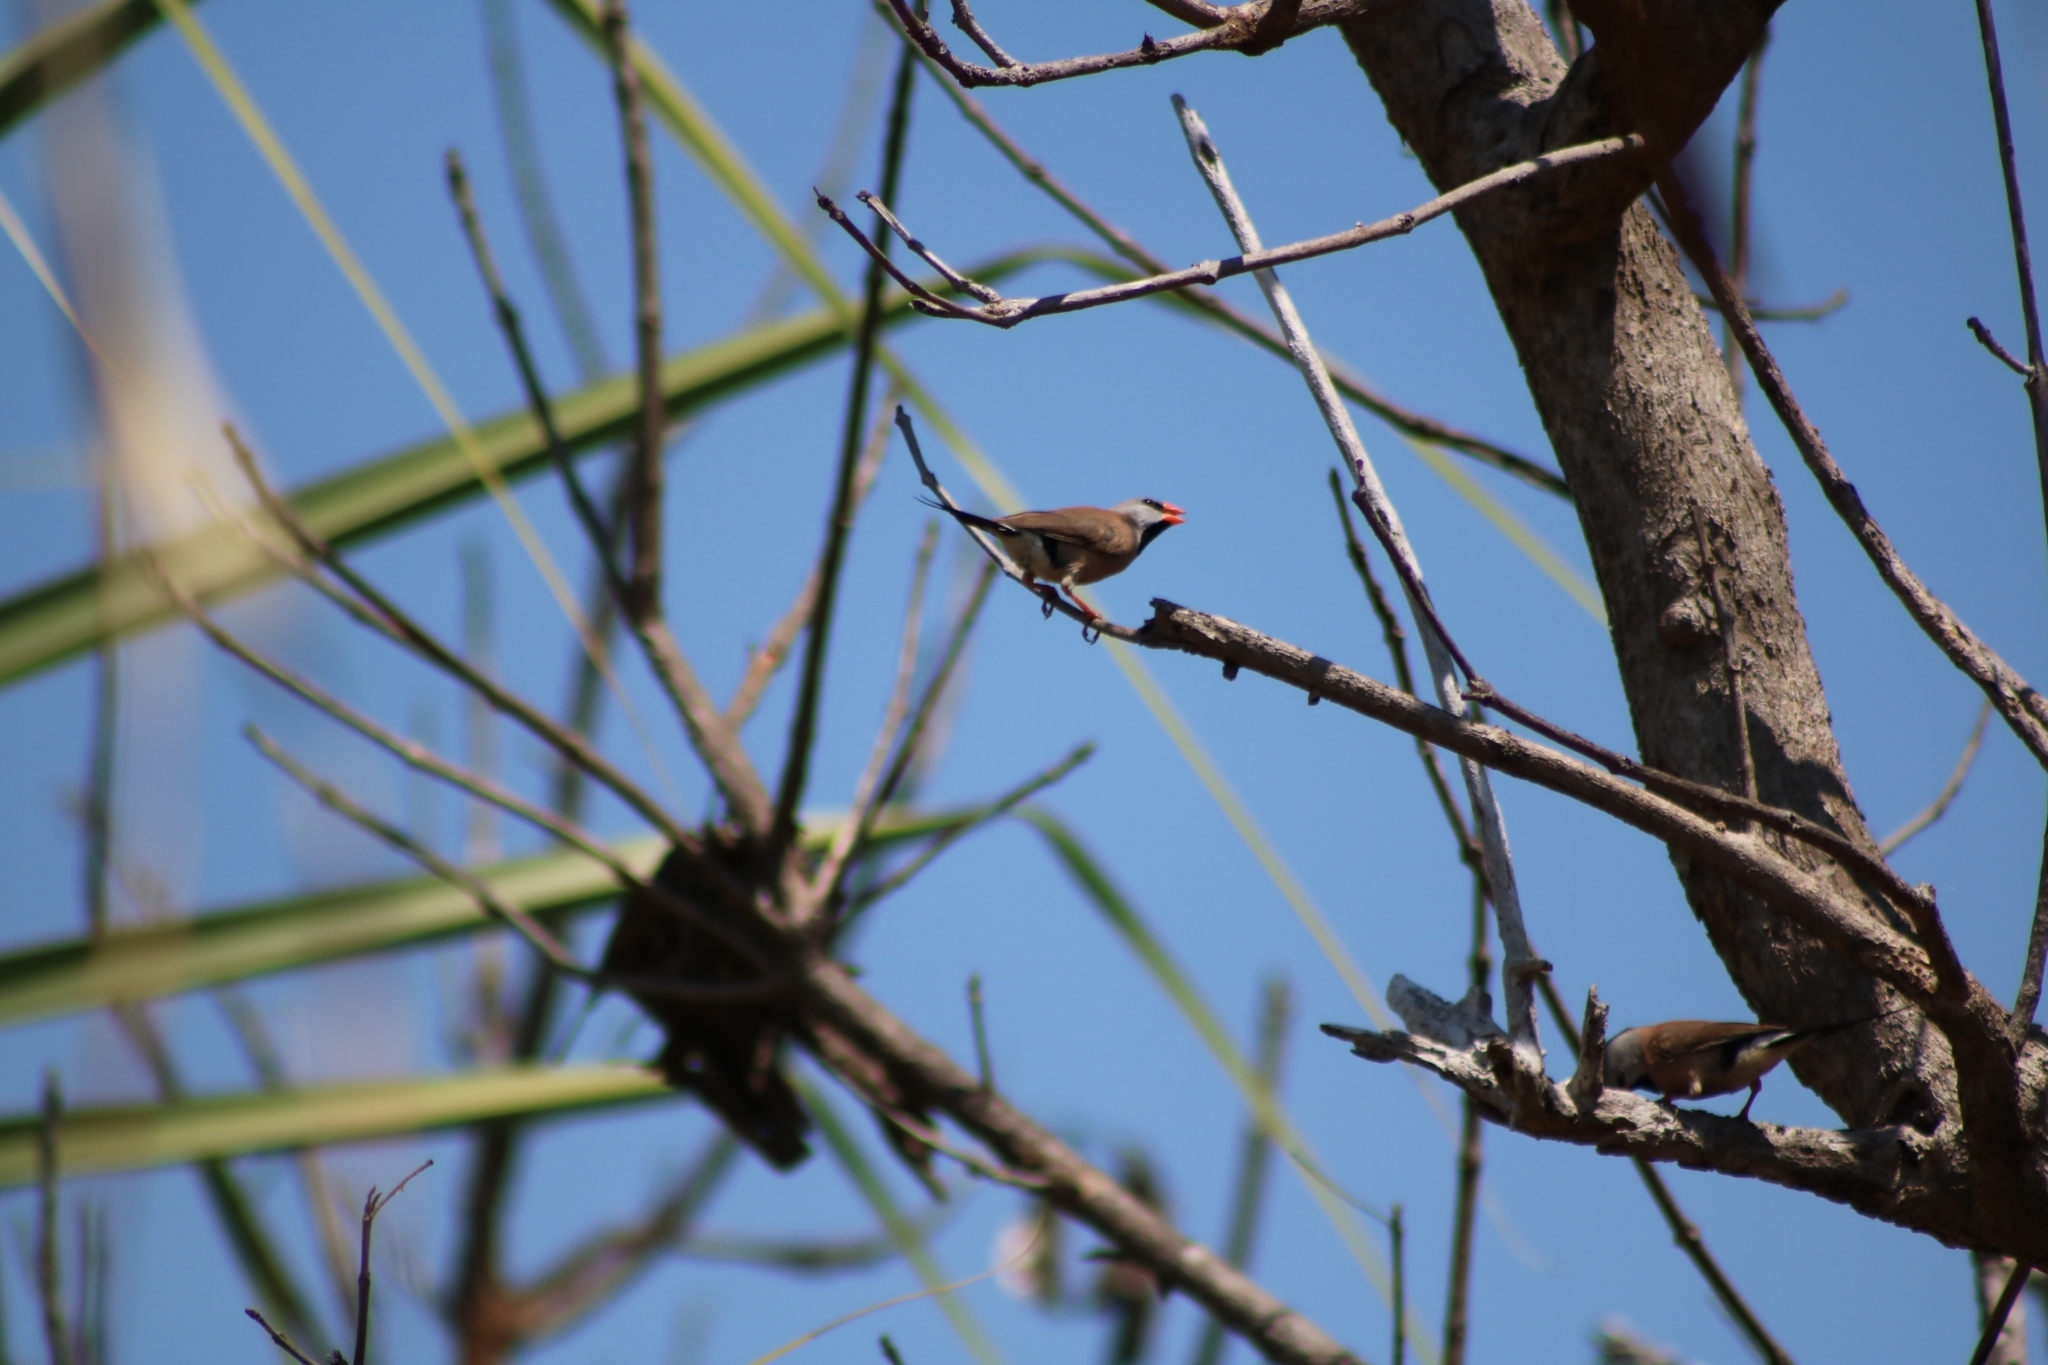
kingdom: Animalia
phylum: Chordata
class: Aves
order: Passeriformes
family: Estrildidae
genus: Poephila
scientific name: Poephila acuticauda
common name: Long-tailed finch
